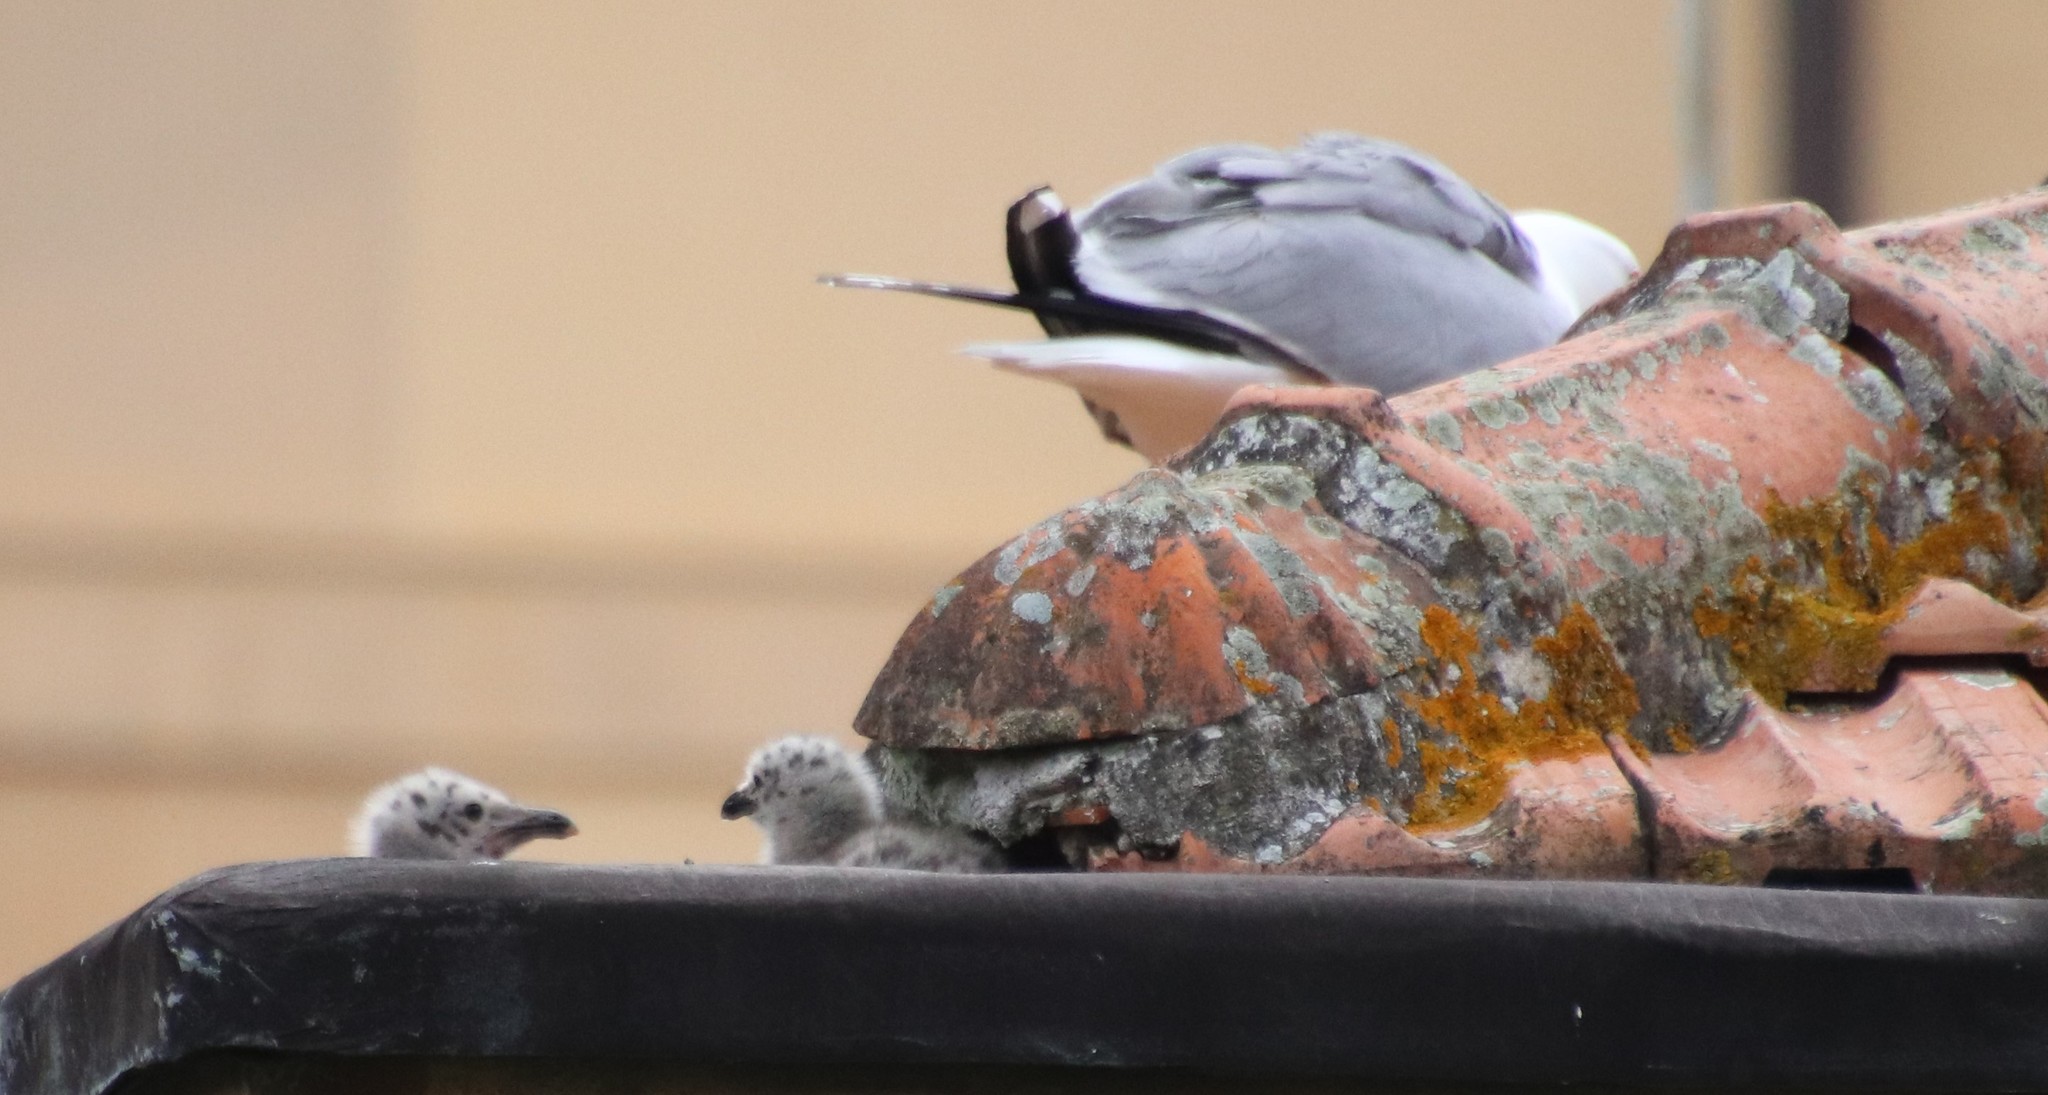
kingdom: Animalia
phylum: Chordata
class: Aves
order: Charadriiformes
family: Laridae
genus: Larus
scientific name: Larus michahellis
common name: Yellow-legged gull
